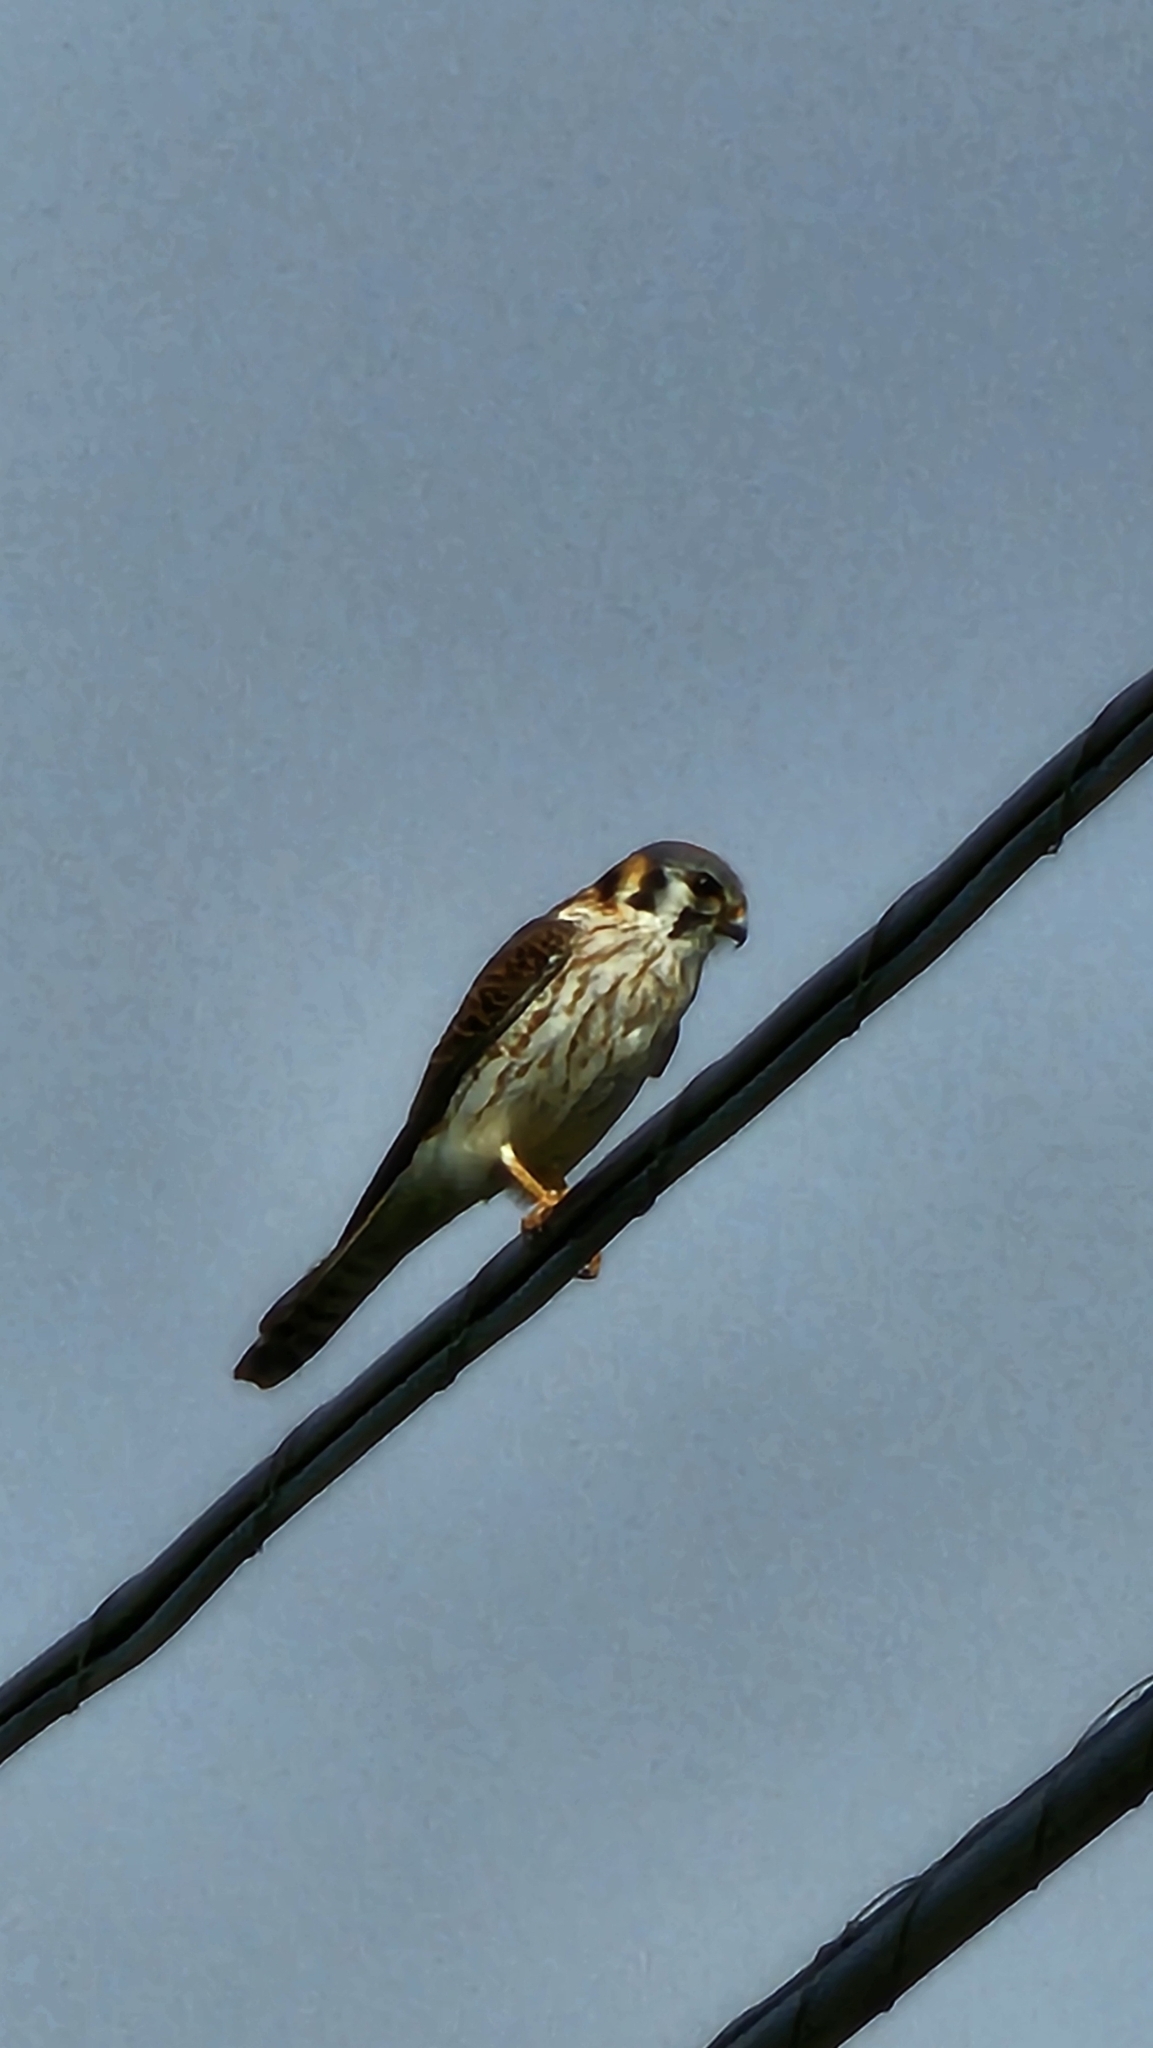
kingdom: Animalia
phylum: Chordata
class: Aves
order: Falconiformes
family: Falconidae
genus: Falco
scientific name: Falco sparverius
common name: American kestrel
